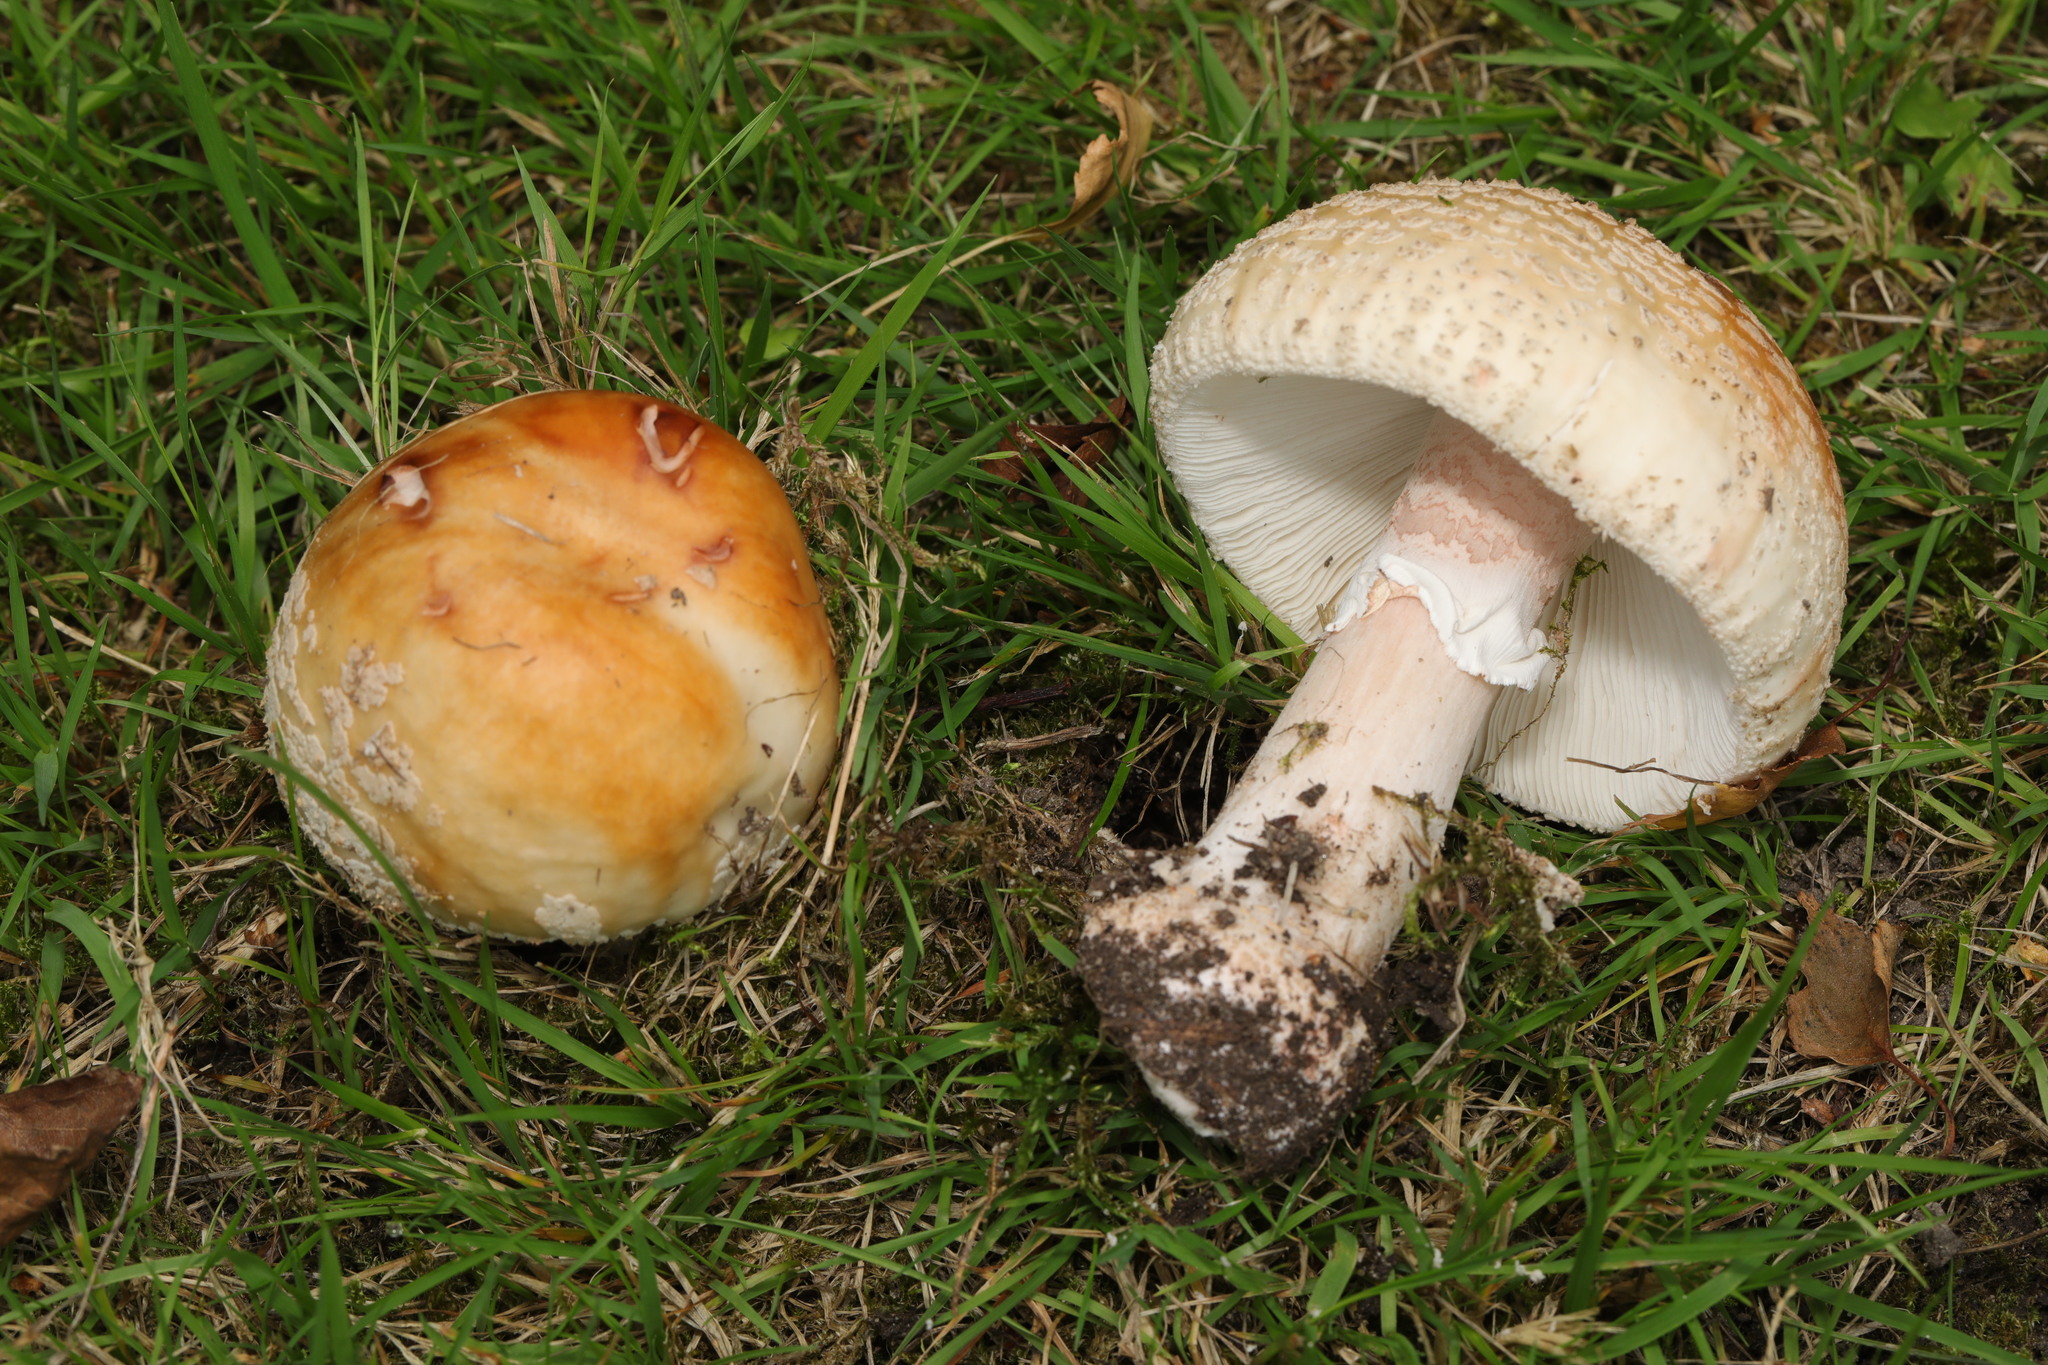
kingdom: Fungi
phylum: Basidiomycota
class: Agaricomycetes
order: Agaricales
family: Amanitaceae
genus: Amanita
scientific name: Amanita rubescens
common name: Blusher
